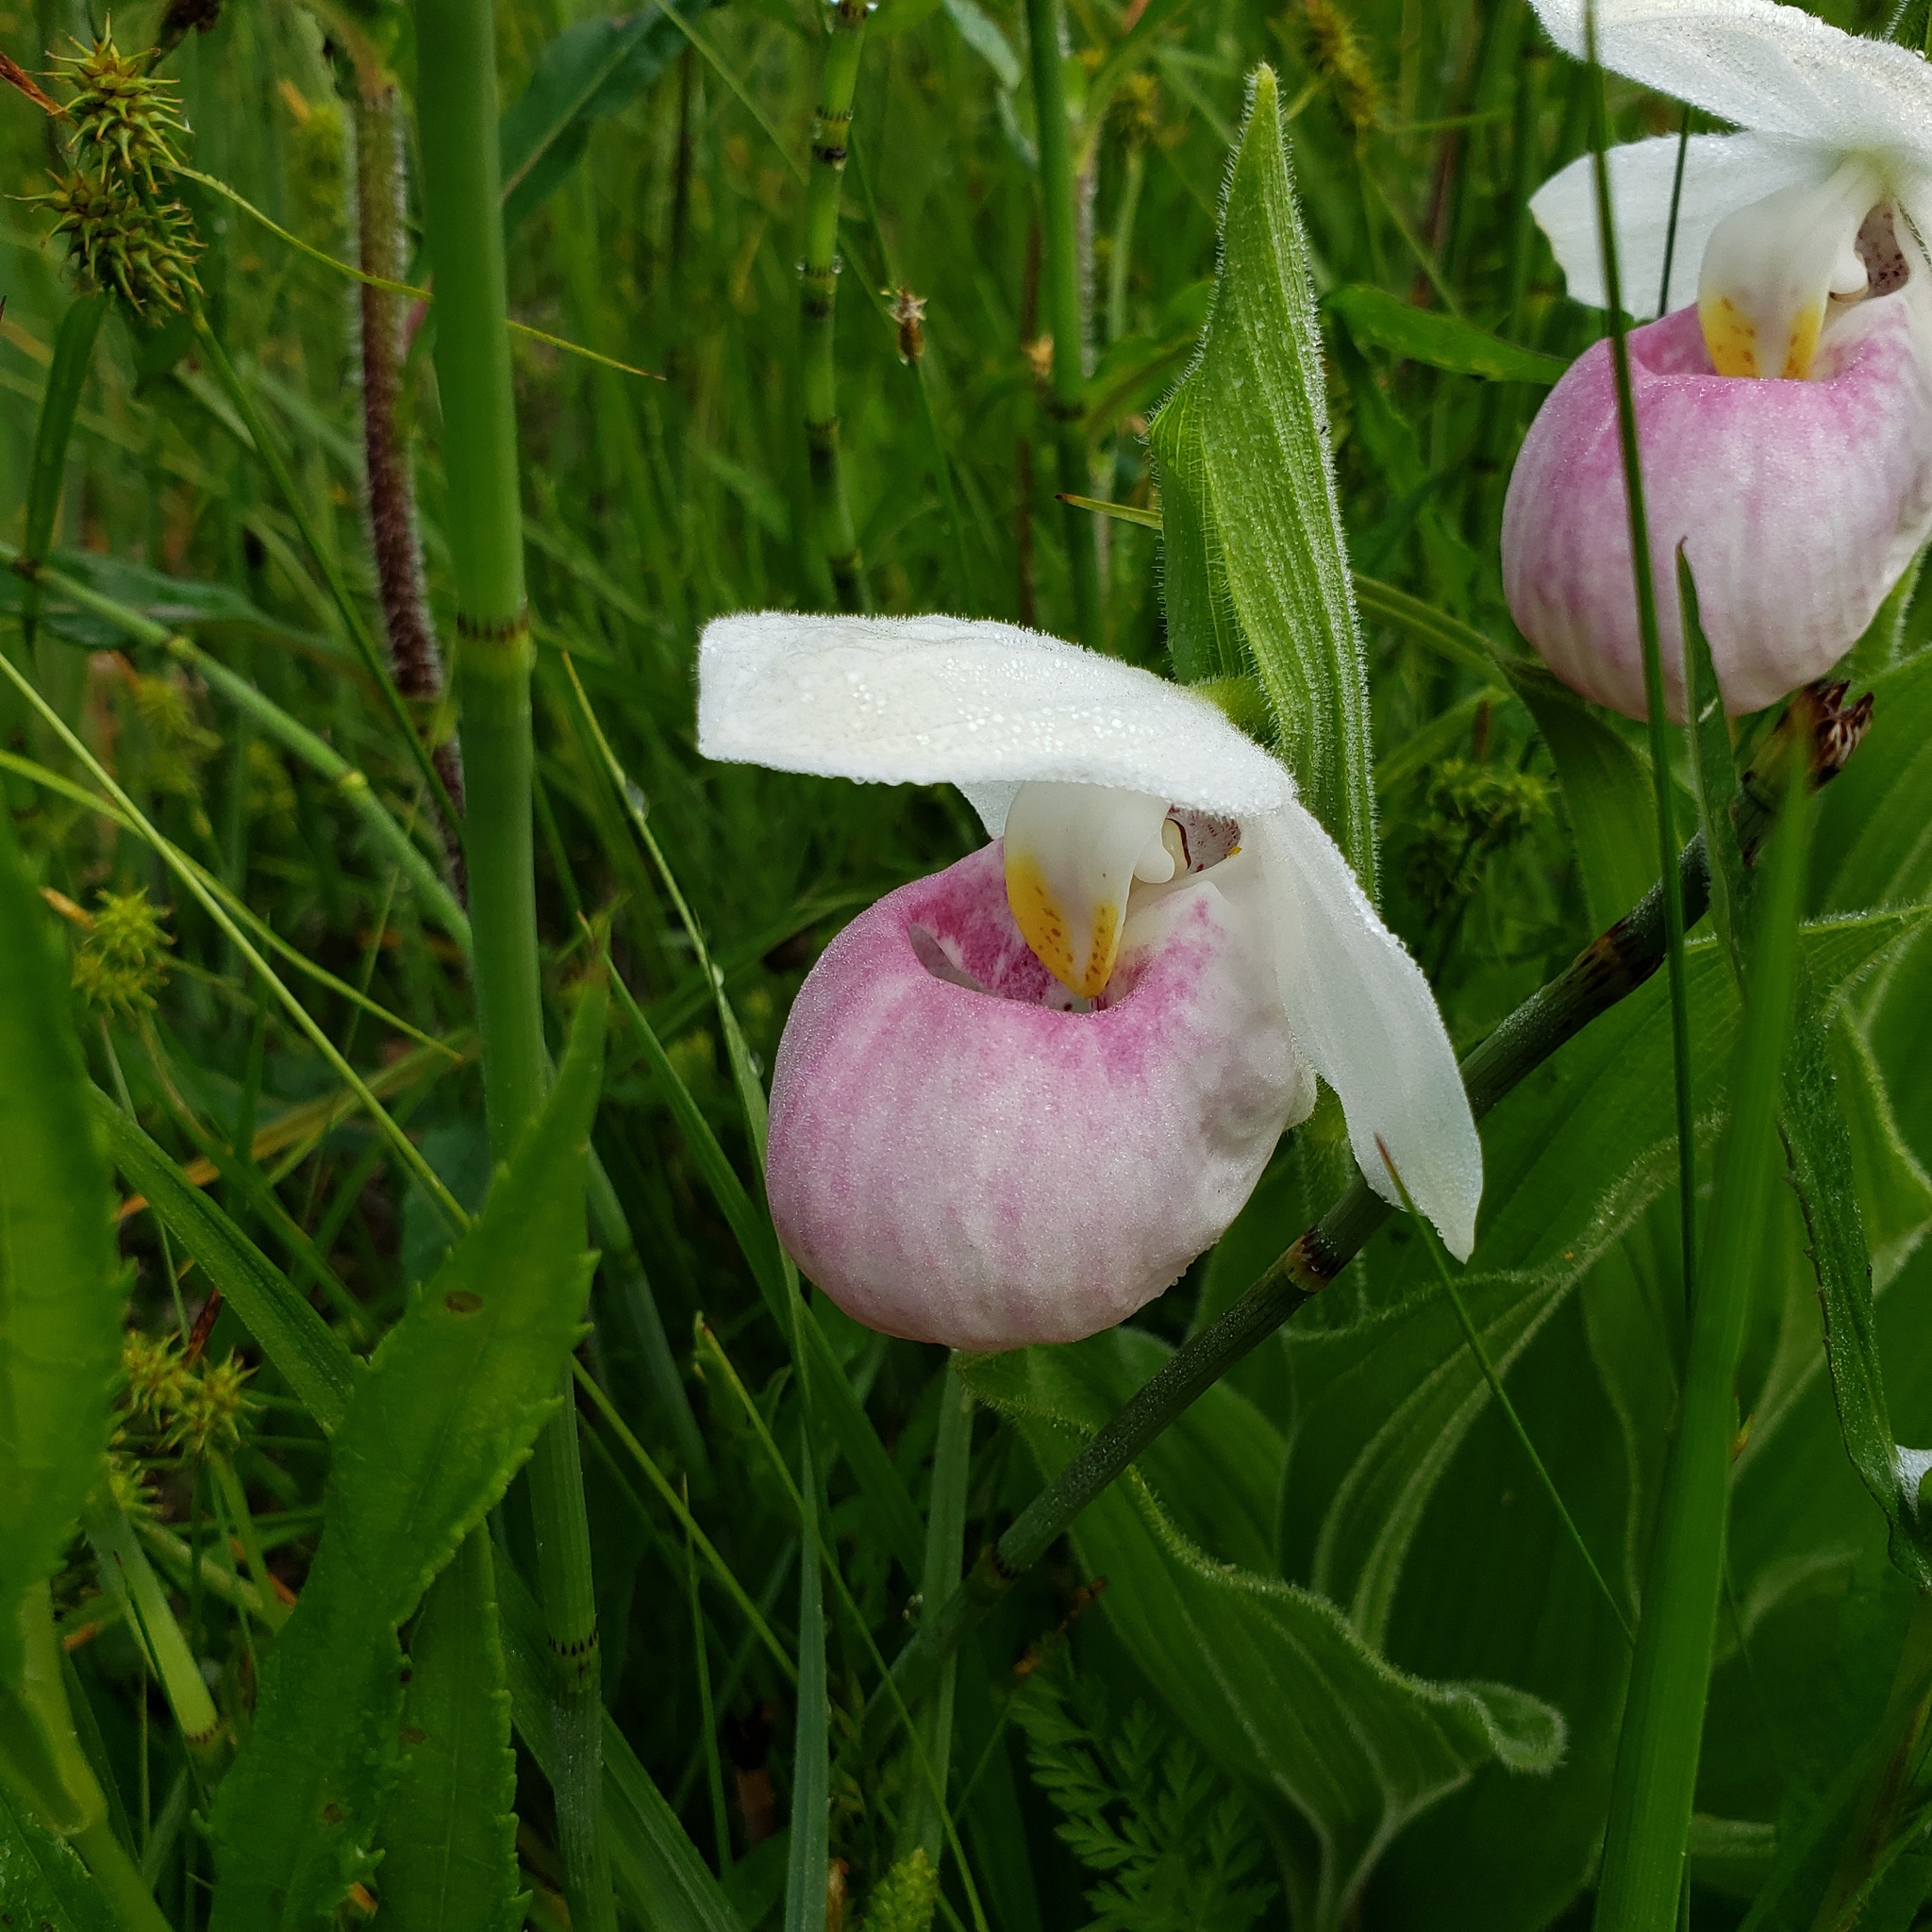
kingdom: Plantae
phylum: Tracheophyta
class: Liliopsida
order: Asparagales
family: Orchidaceae
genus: Cypripedium
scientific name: Cypripedium reginae
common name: Queen lady's-slipper
